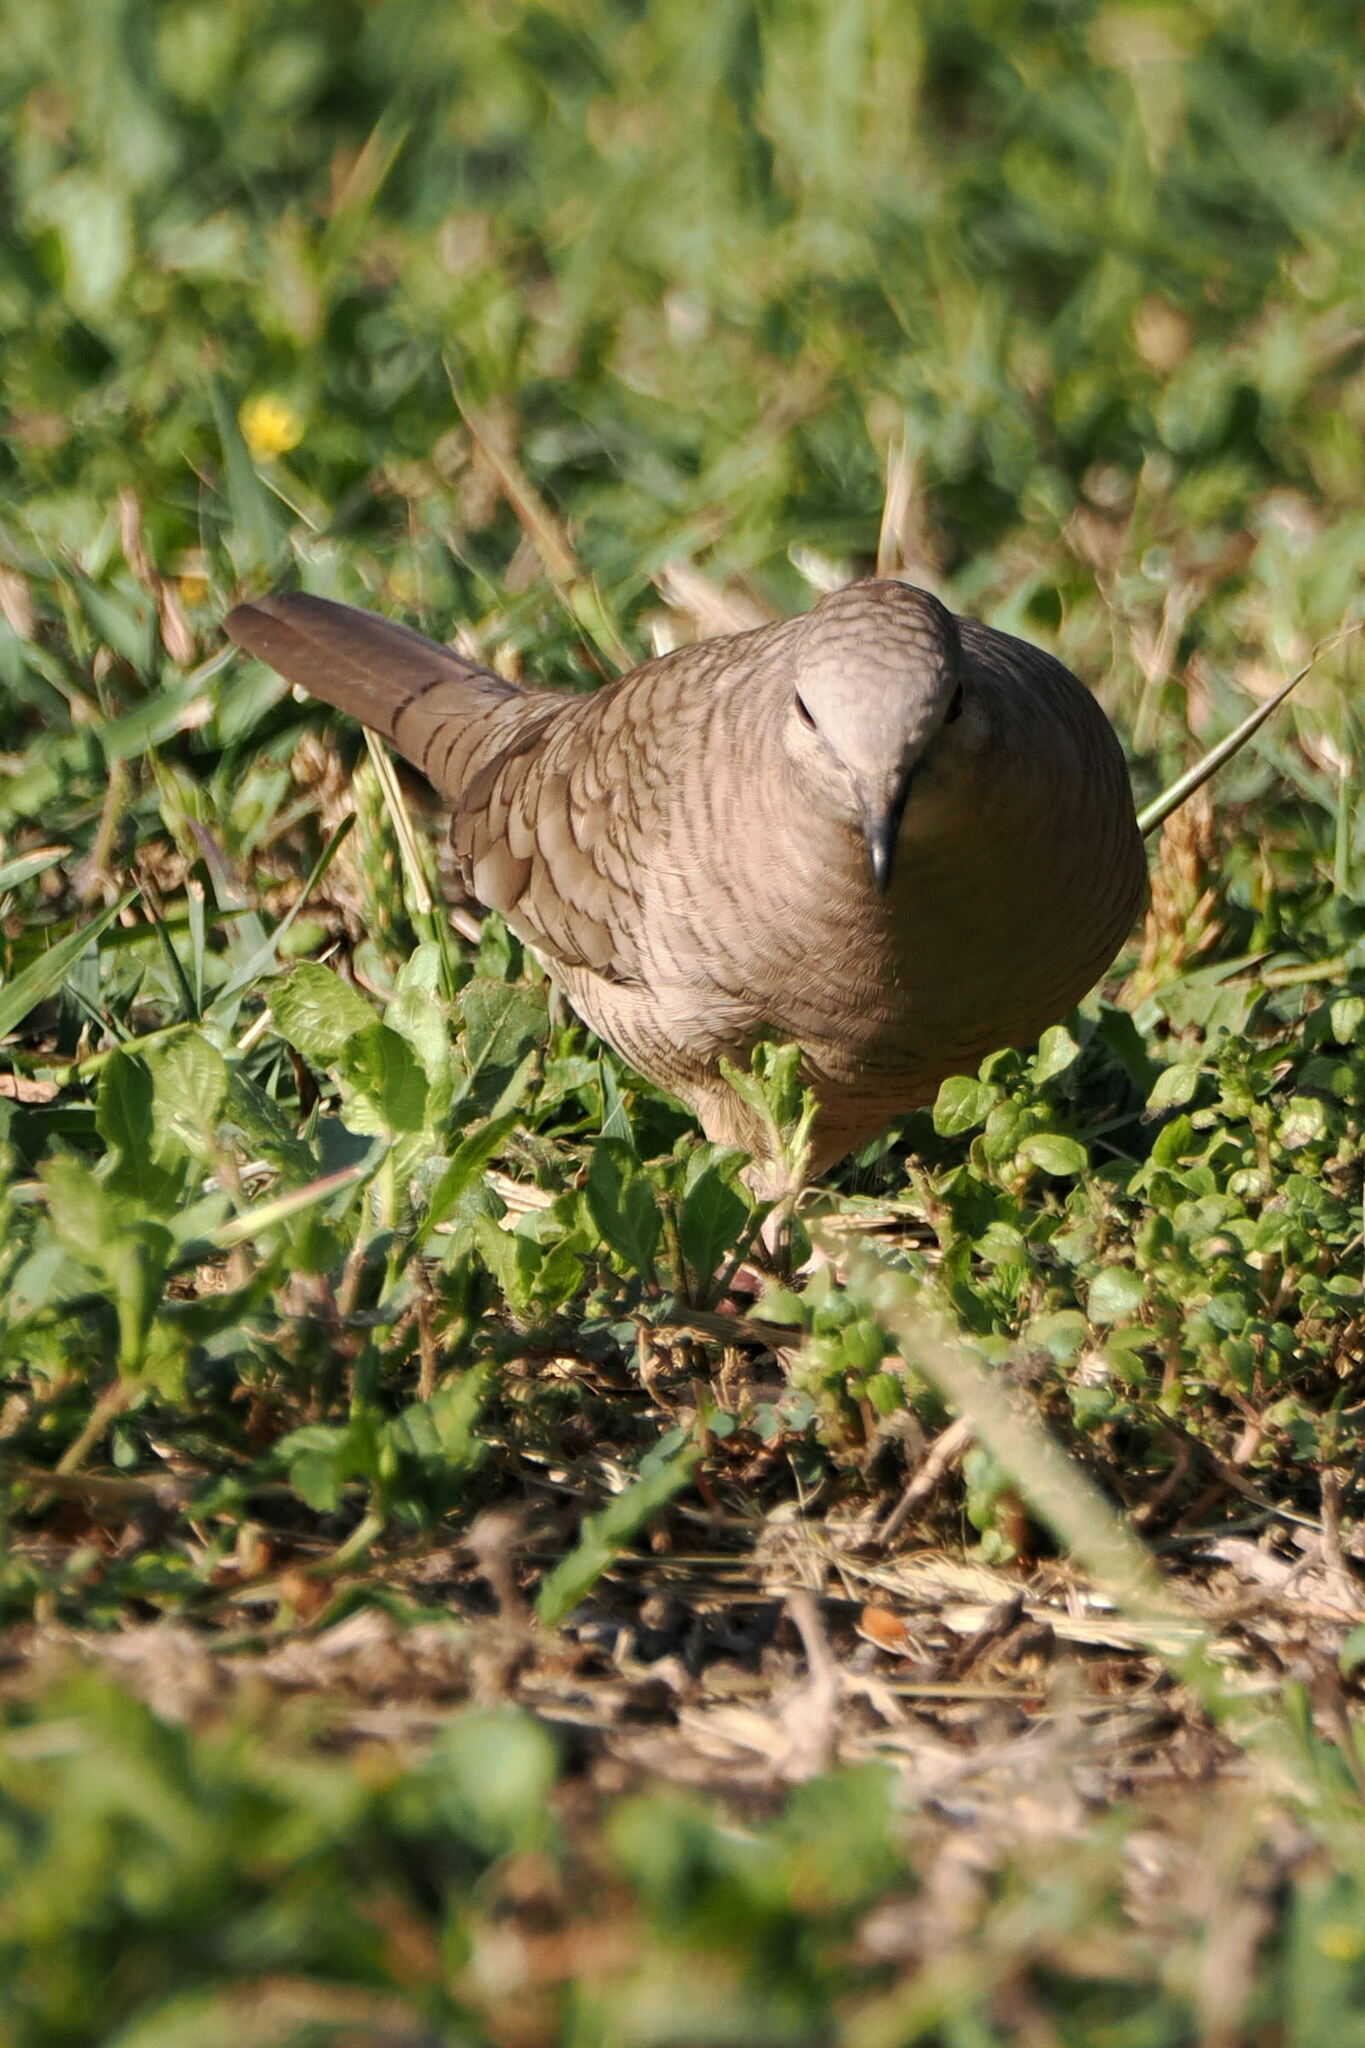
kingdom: Animalia
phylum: Chordata
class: Aves
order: Columbiformes
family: Columbidae
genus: Columbina
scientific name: Columbina inca
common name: Inca dove
